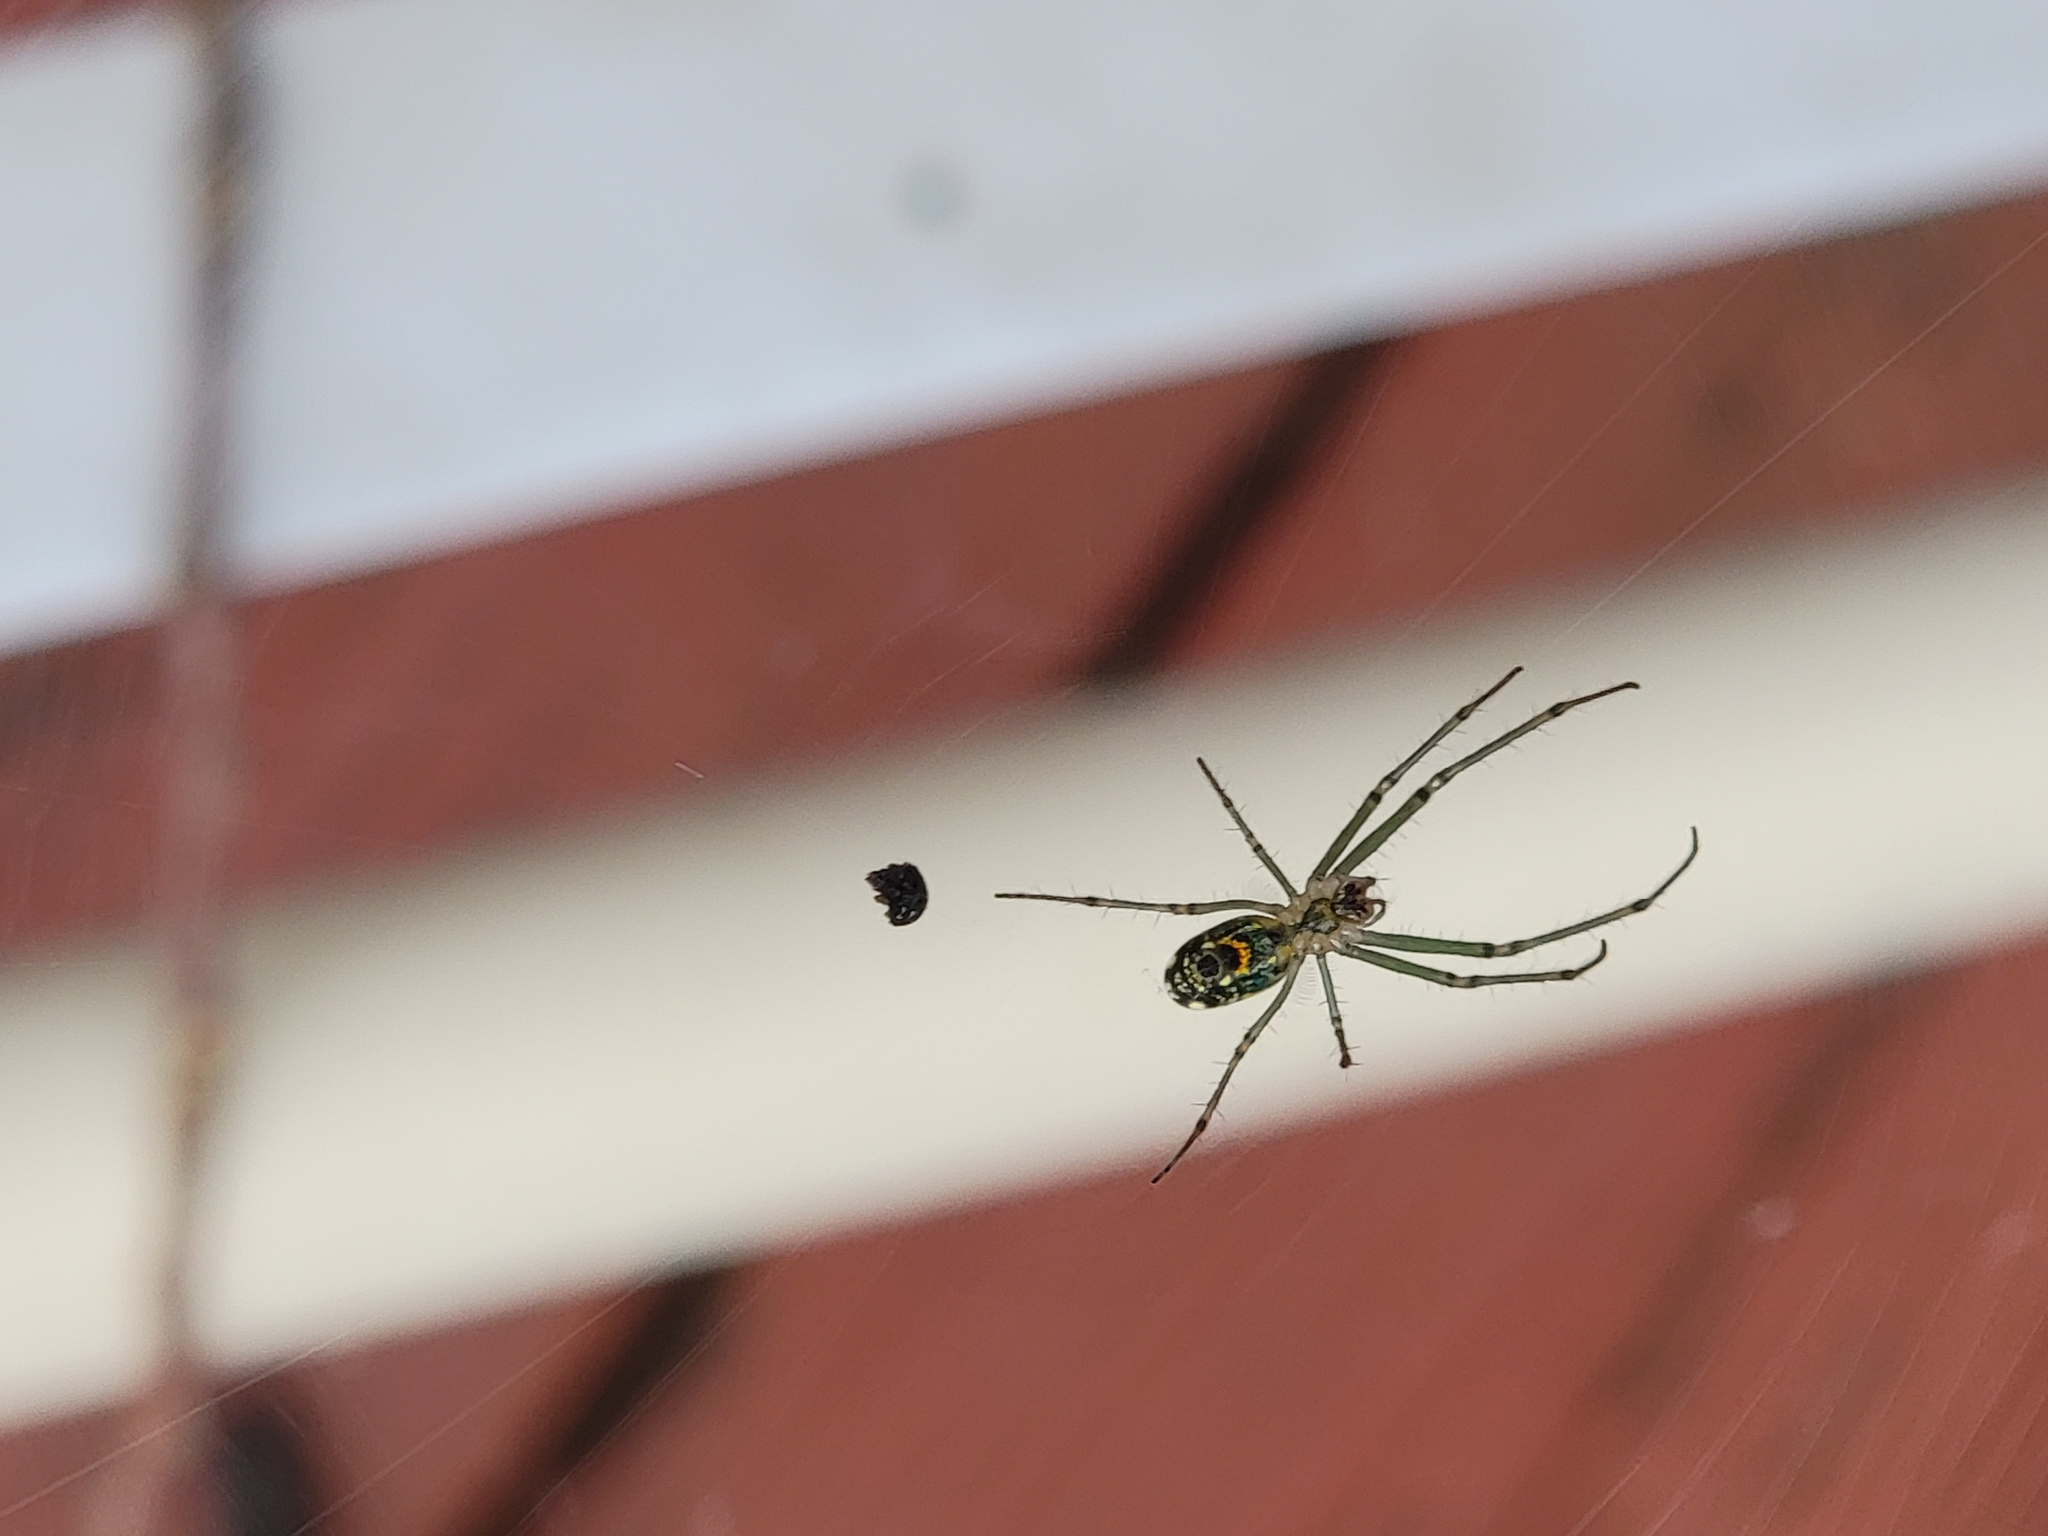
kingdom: Animalia
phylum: Arthropoda
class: Arachnida
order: Araneae
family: Tetragnathidae
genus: Leucauge
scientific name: Leucauge venusta
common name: Longjawed orb weavers
